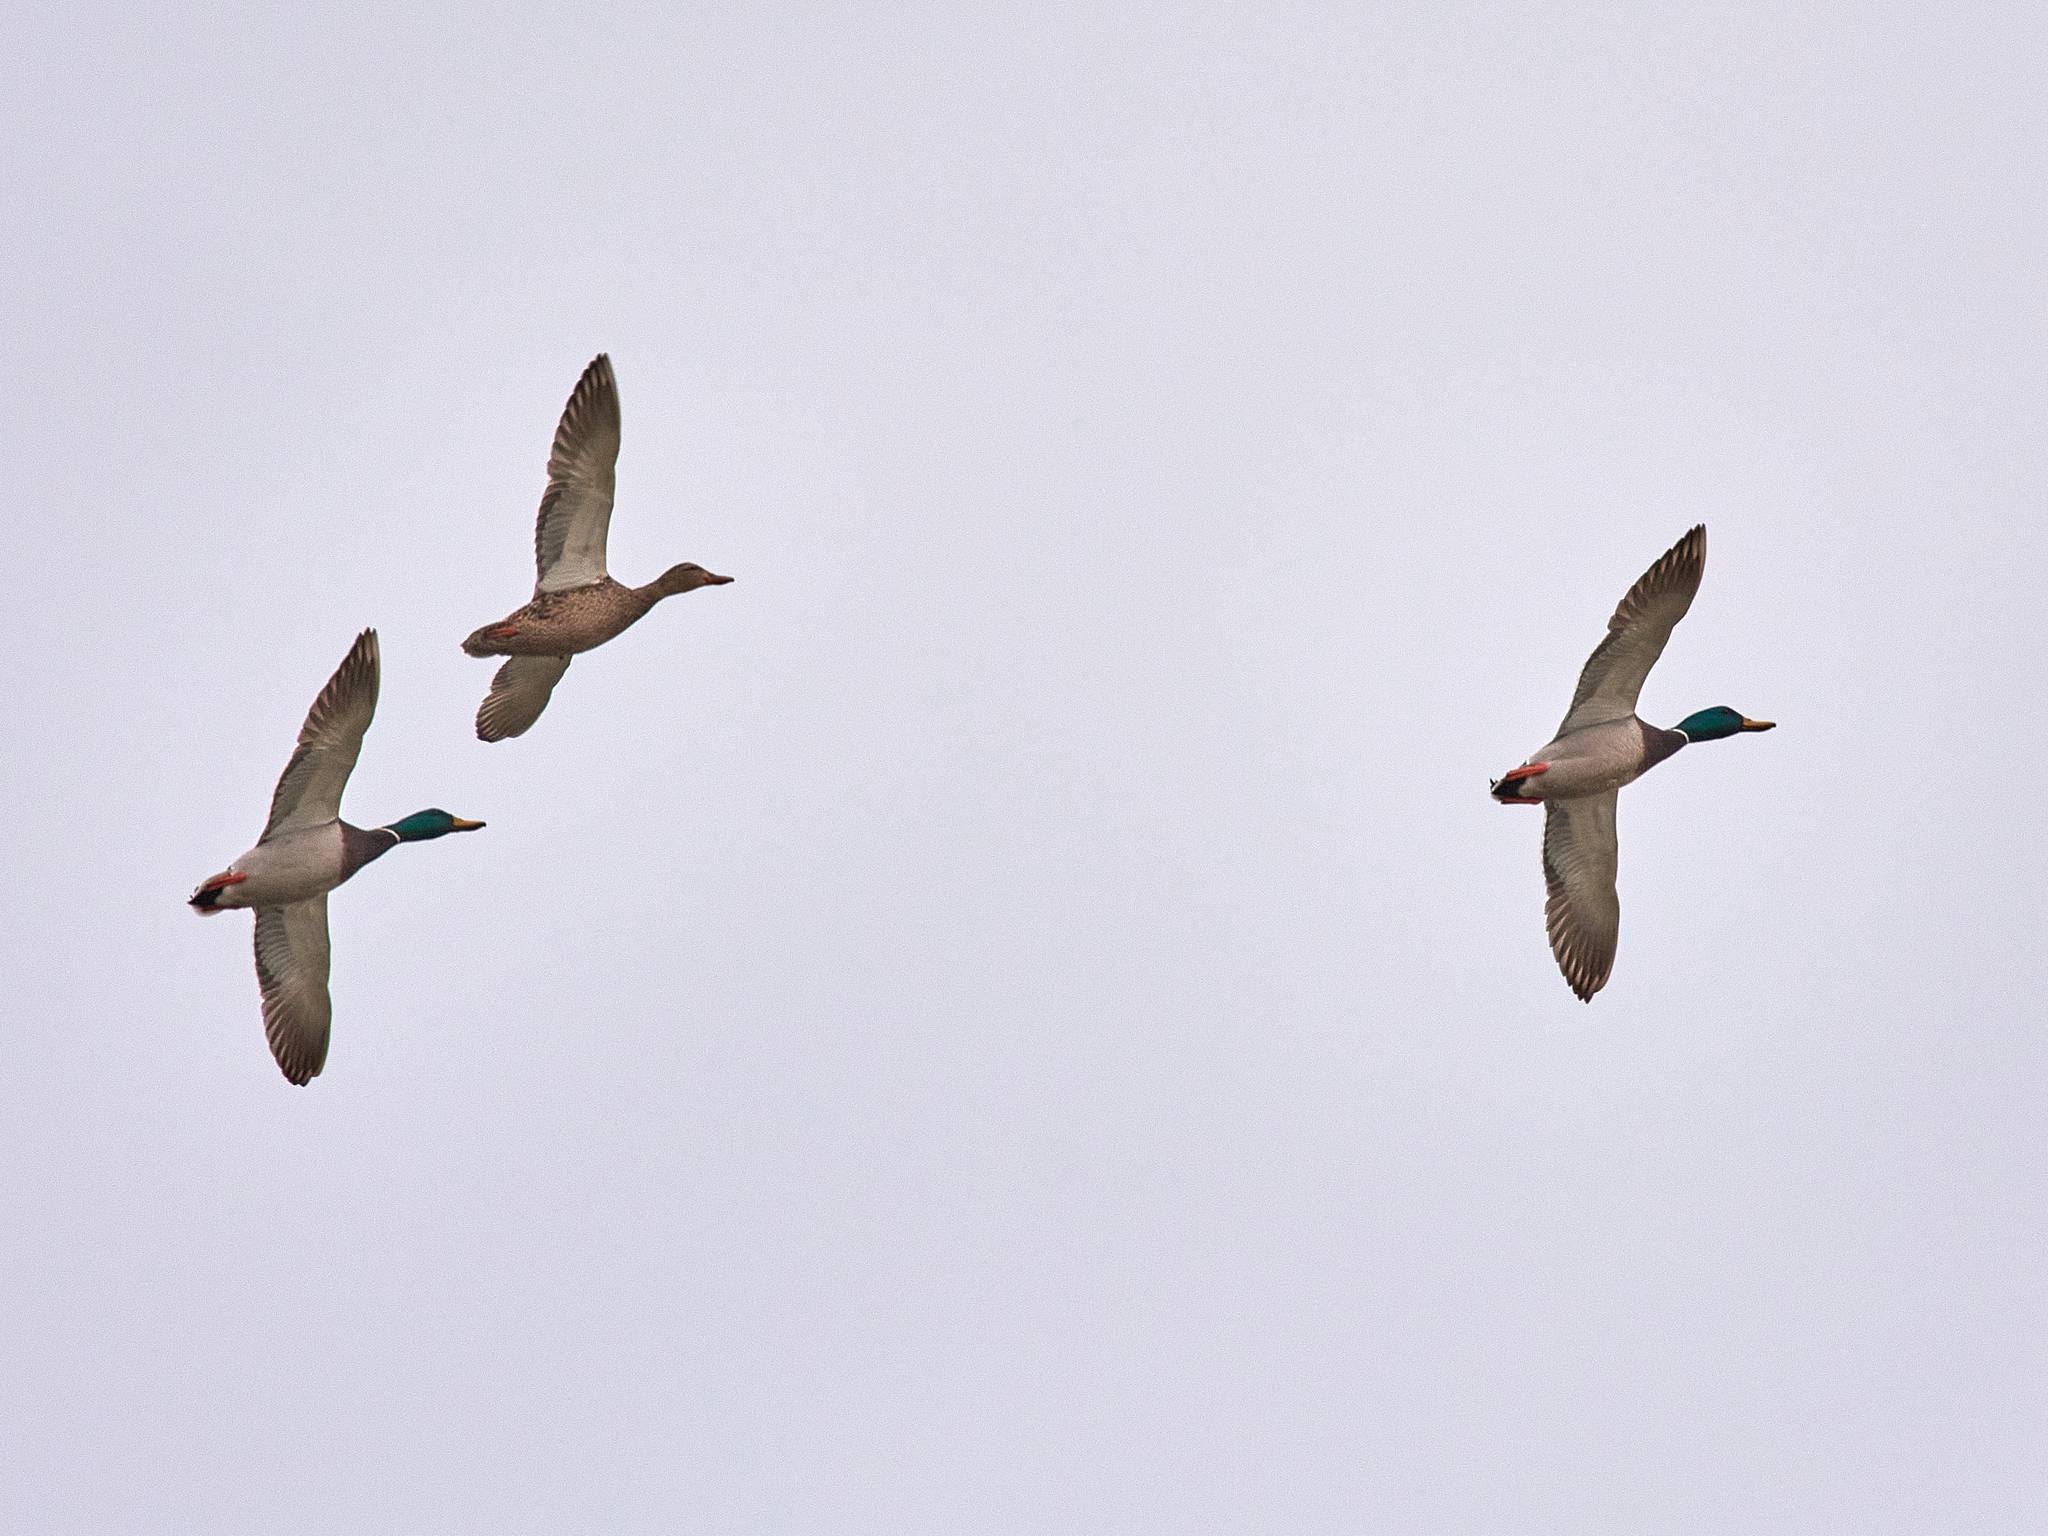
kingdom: Animalia
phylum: Chordata
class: Aves
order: Anseriformes
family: Anatidae
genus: Anas
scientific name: Anas platyrhynchos
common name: Mallard
